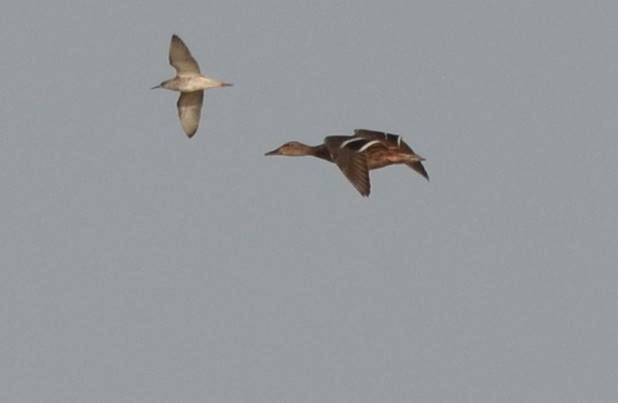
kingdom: Animalia
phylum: Chordata
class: Aves
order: Anseriformes
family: Anatidae
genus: Anas
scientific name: Anas platyrhynchos
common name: Mallard
